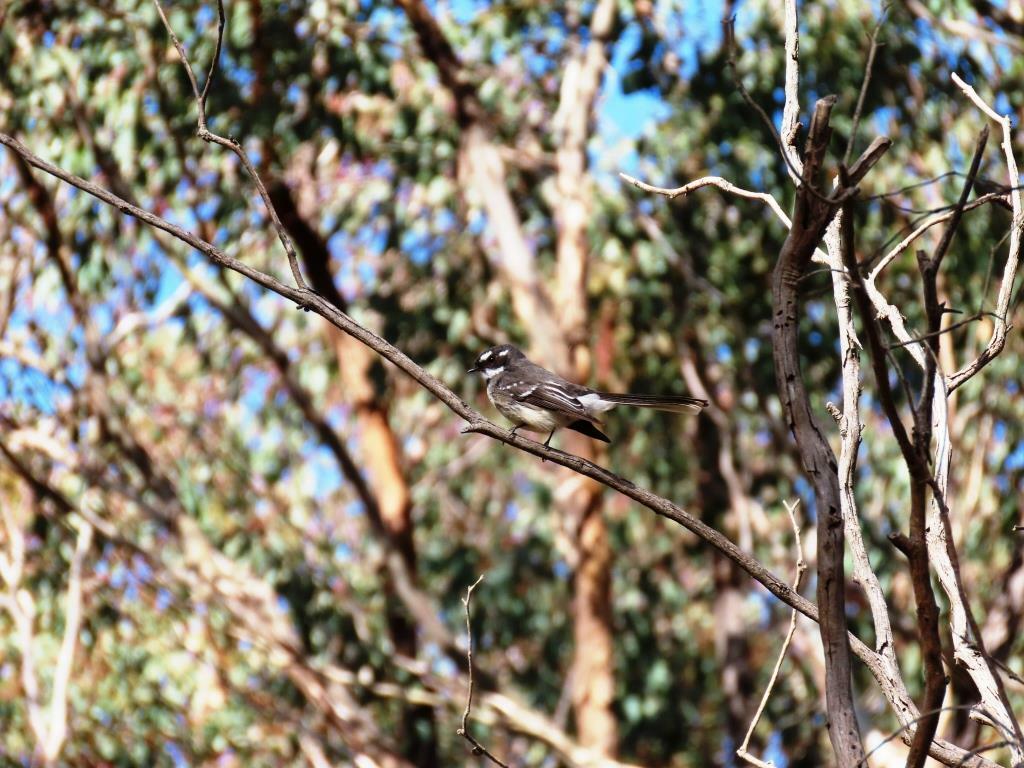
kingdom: Animalia
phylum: Chordata
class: Aves
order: Passeriformes
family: Rhipiduridae
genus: Rhipidura
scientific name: Rhipidura albiscapa
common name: Grey fantail
